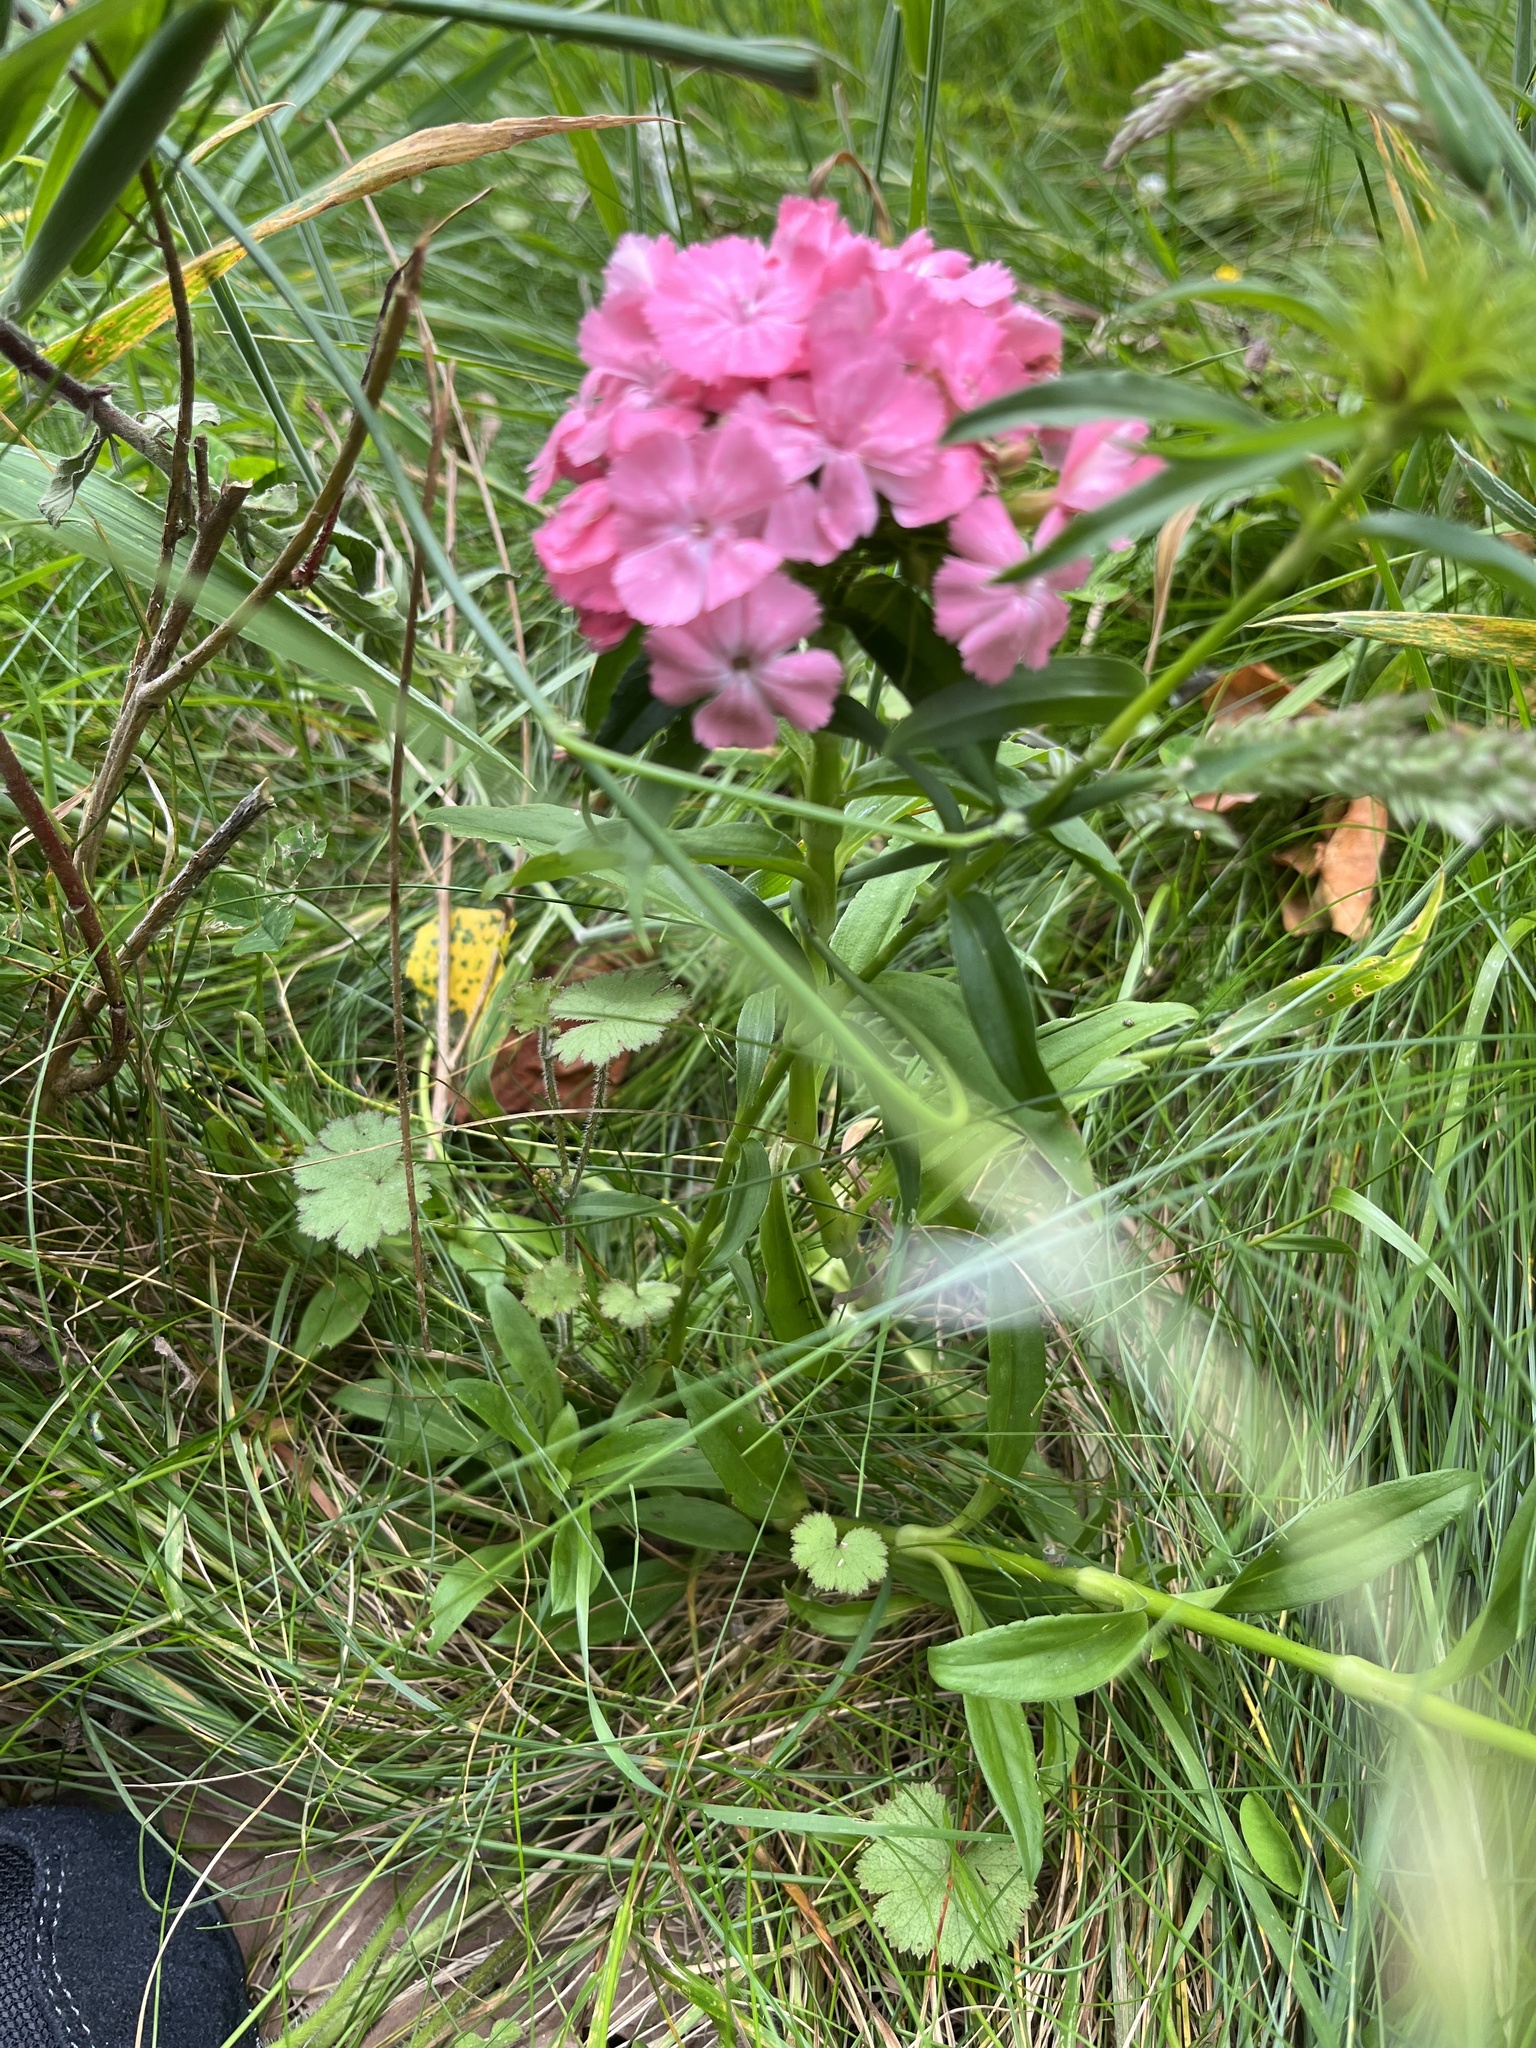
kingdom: Plantae
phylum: Tracheophyta
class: Magnoliopsida
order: Caryophyllales
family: Caryophyllaceae
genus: Dianthus
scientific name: Dianthus barbatus
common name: Sweet-william
